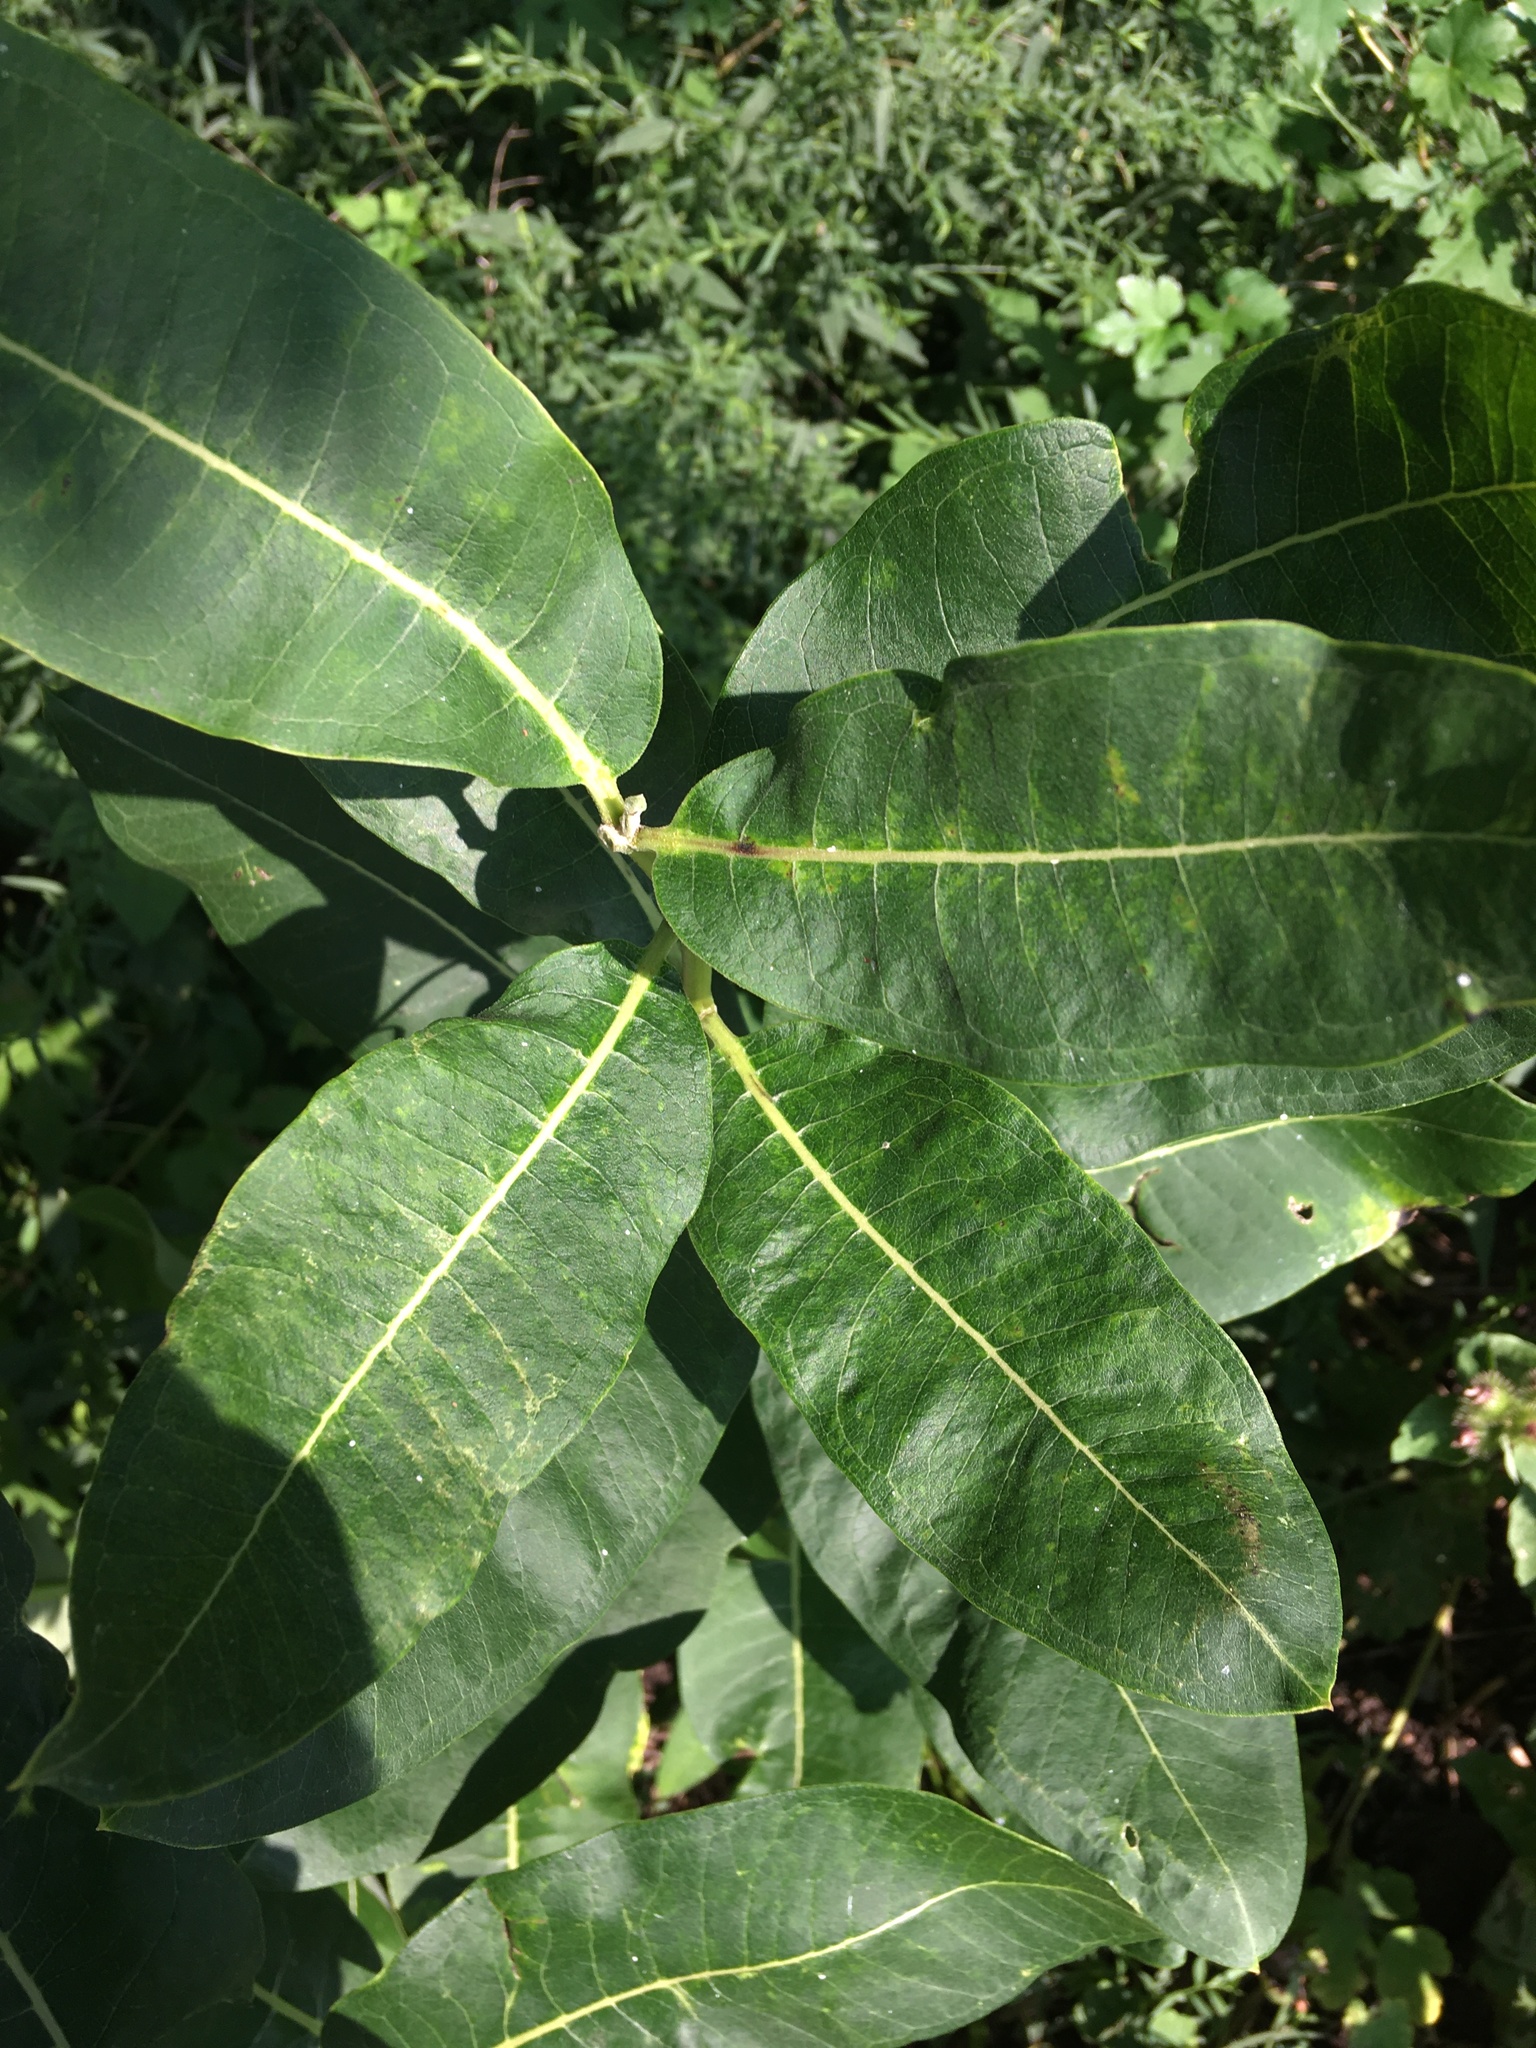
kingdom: Plantae
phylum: Tracheophyta
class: Magnoliopsida
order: Gentianales
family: Apocynaceae
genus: Asclepias
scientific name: Asclepias syriaca
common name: Common milkweed
